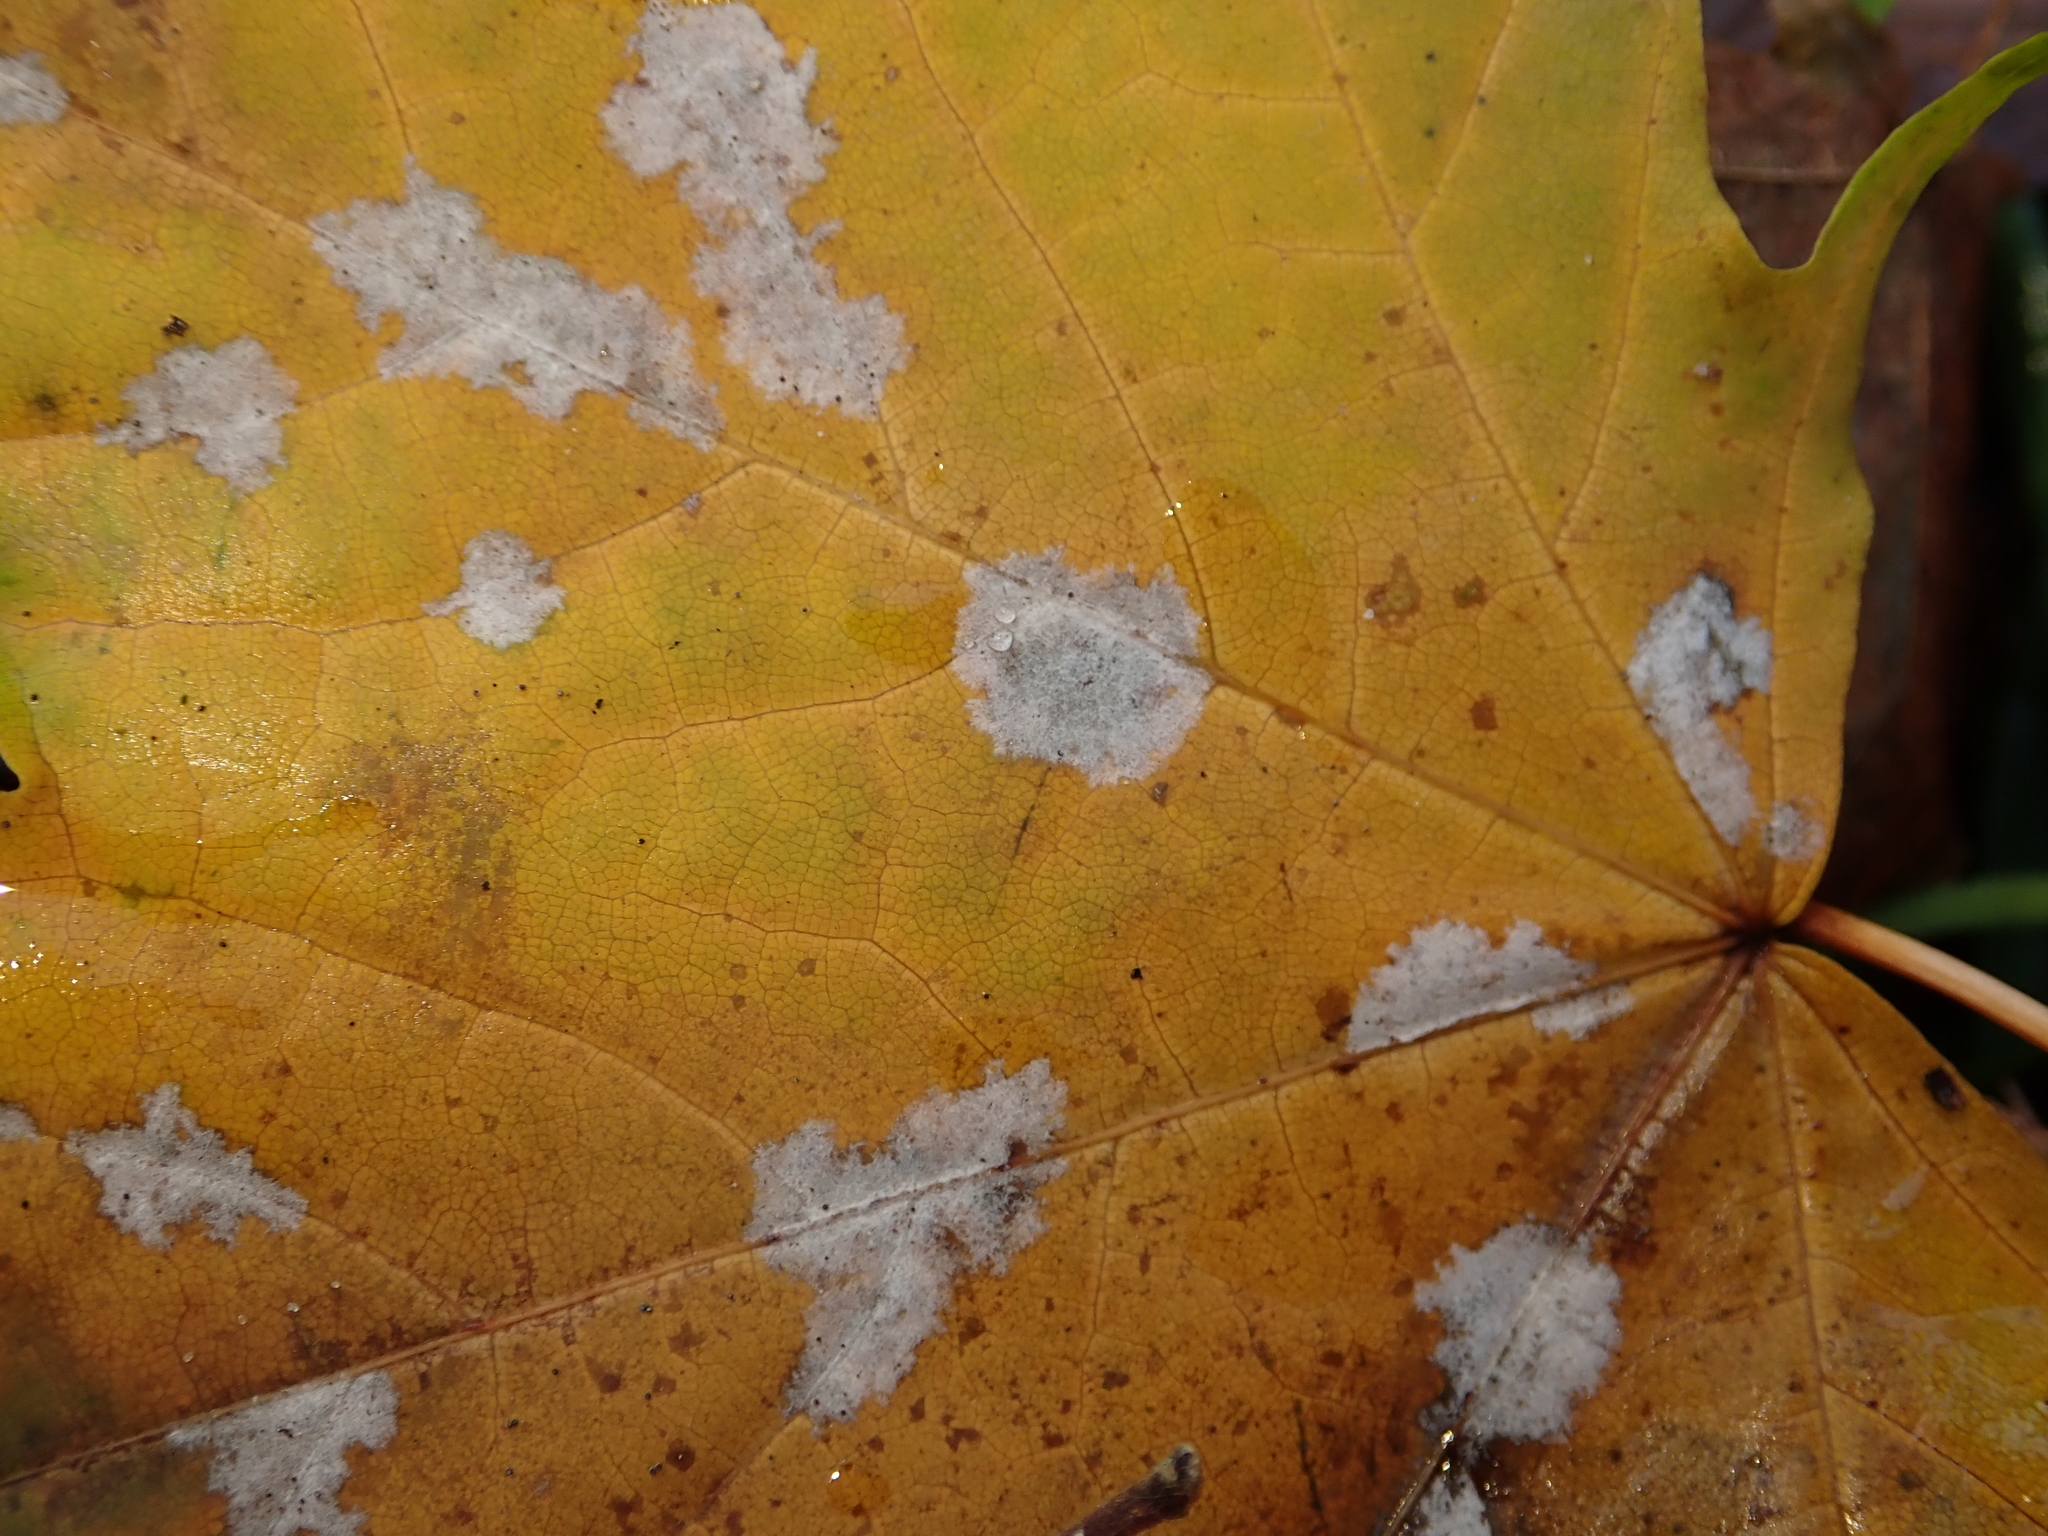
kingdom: Fungi
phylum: Ascomycota
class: Leotiomycetes
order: Helotiales
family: Erysiphaceae
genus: Sawadaea
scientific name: Sawadaea tulasnei
